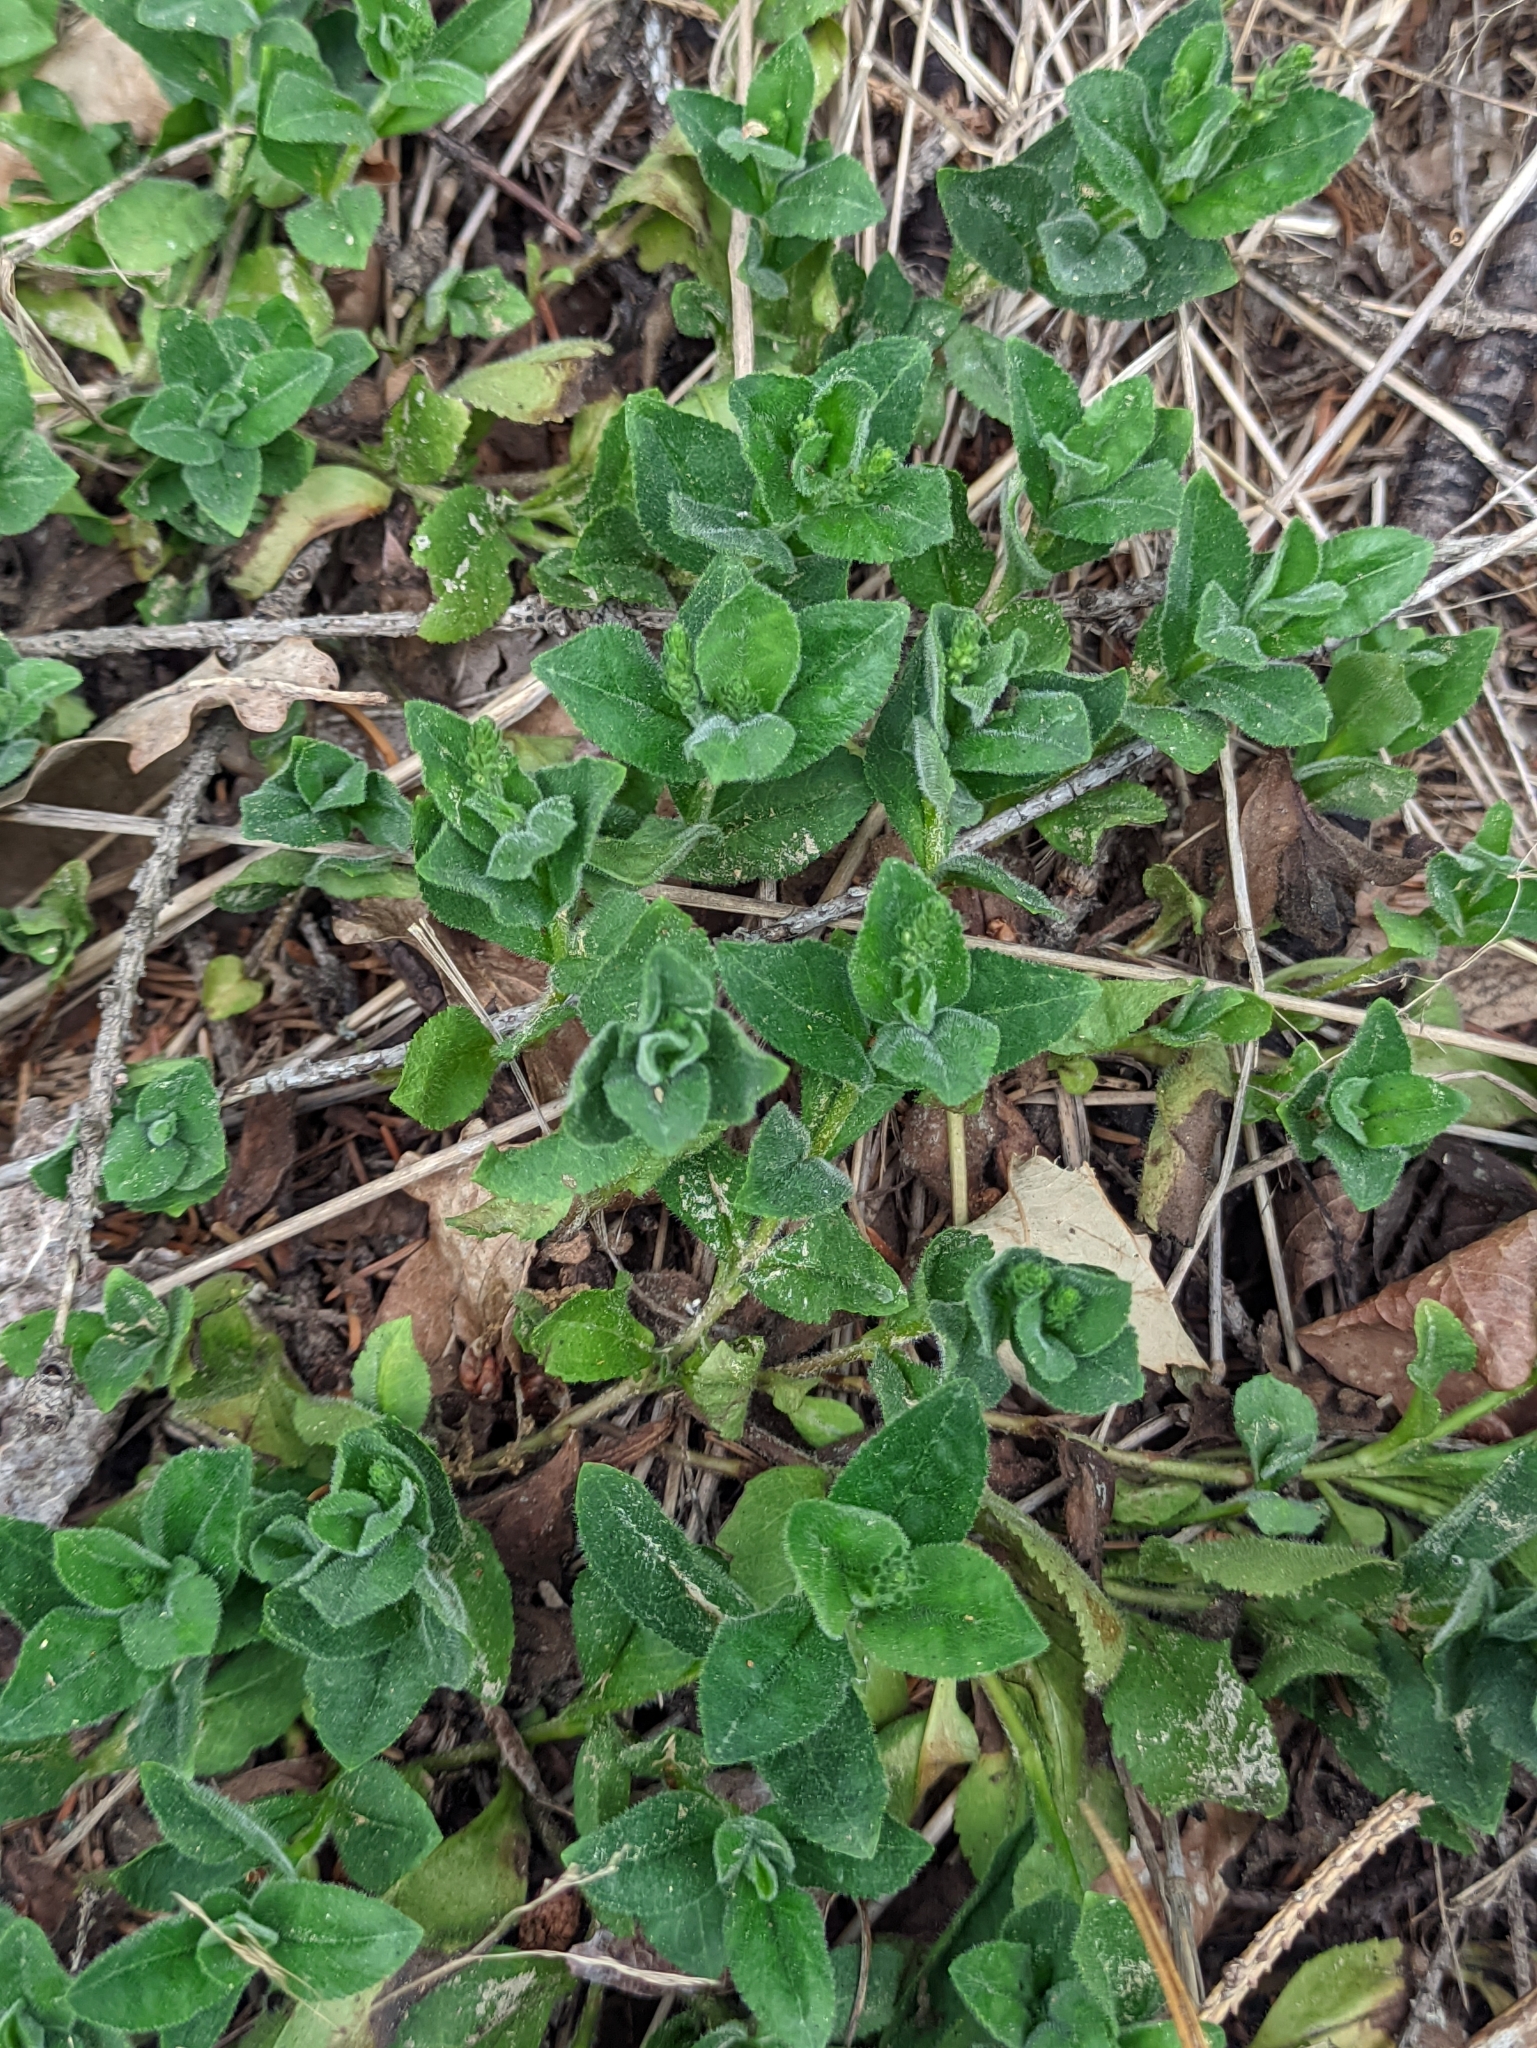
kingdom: Plantae
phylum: Tracheophyta
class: Magnoliopsida
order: Lamiales
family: Plantaginaceae
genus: Veronica
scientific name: Veronica officinalis
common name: Common speedwell
